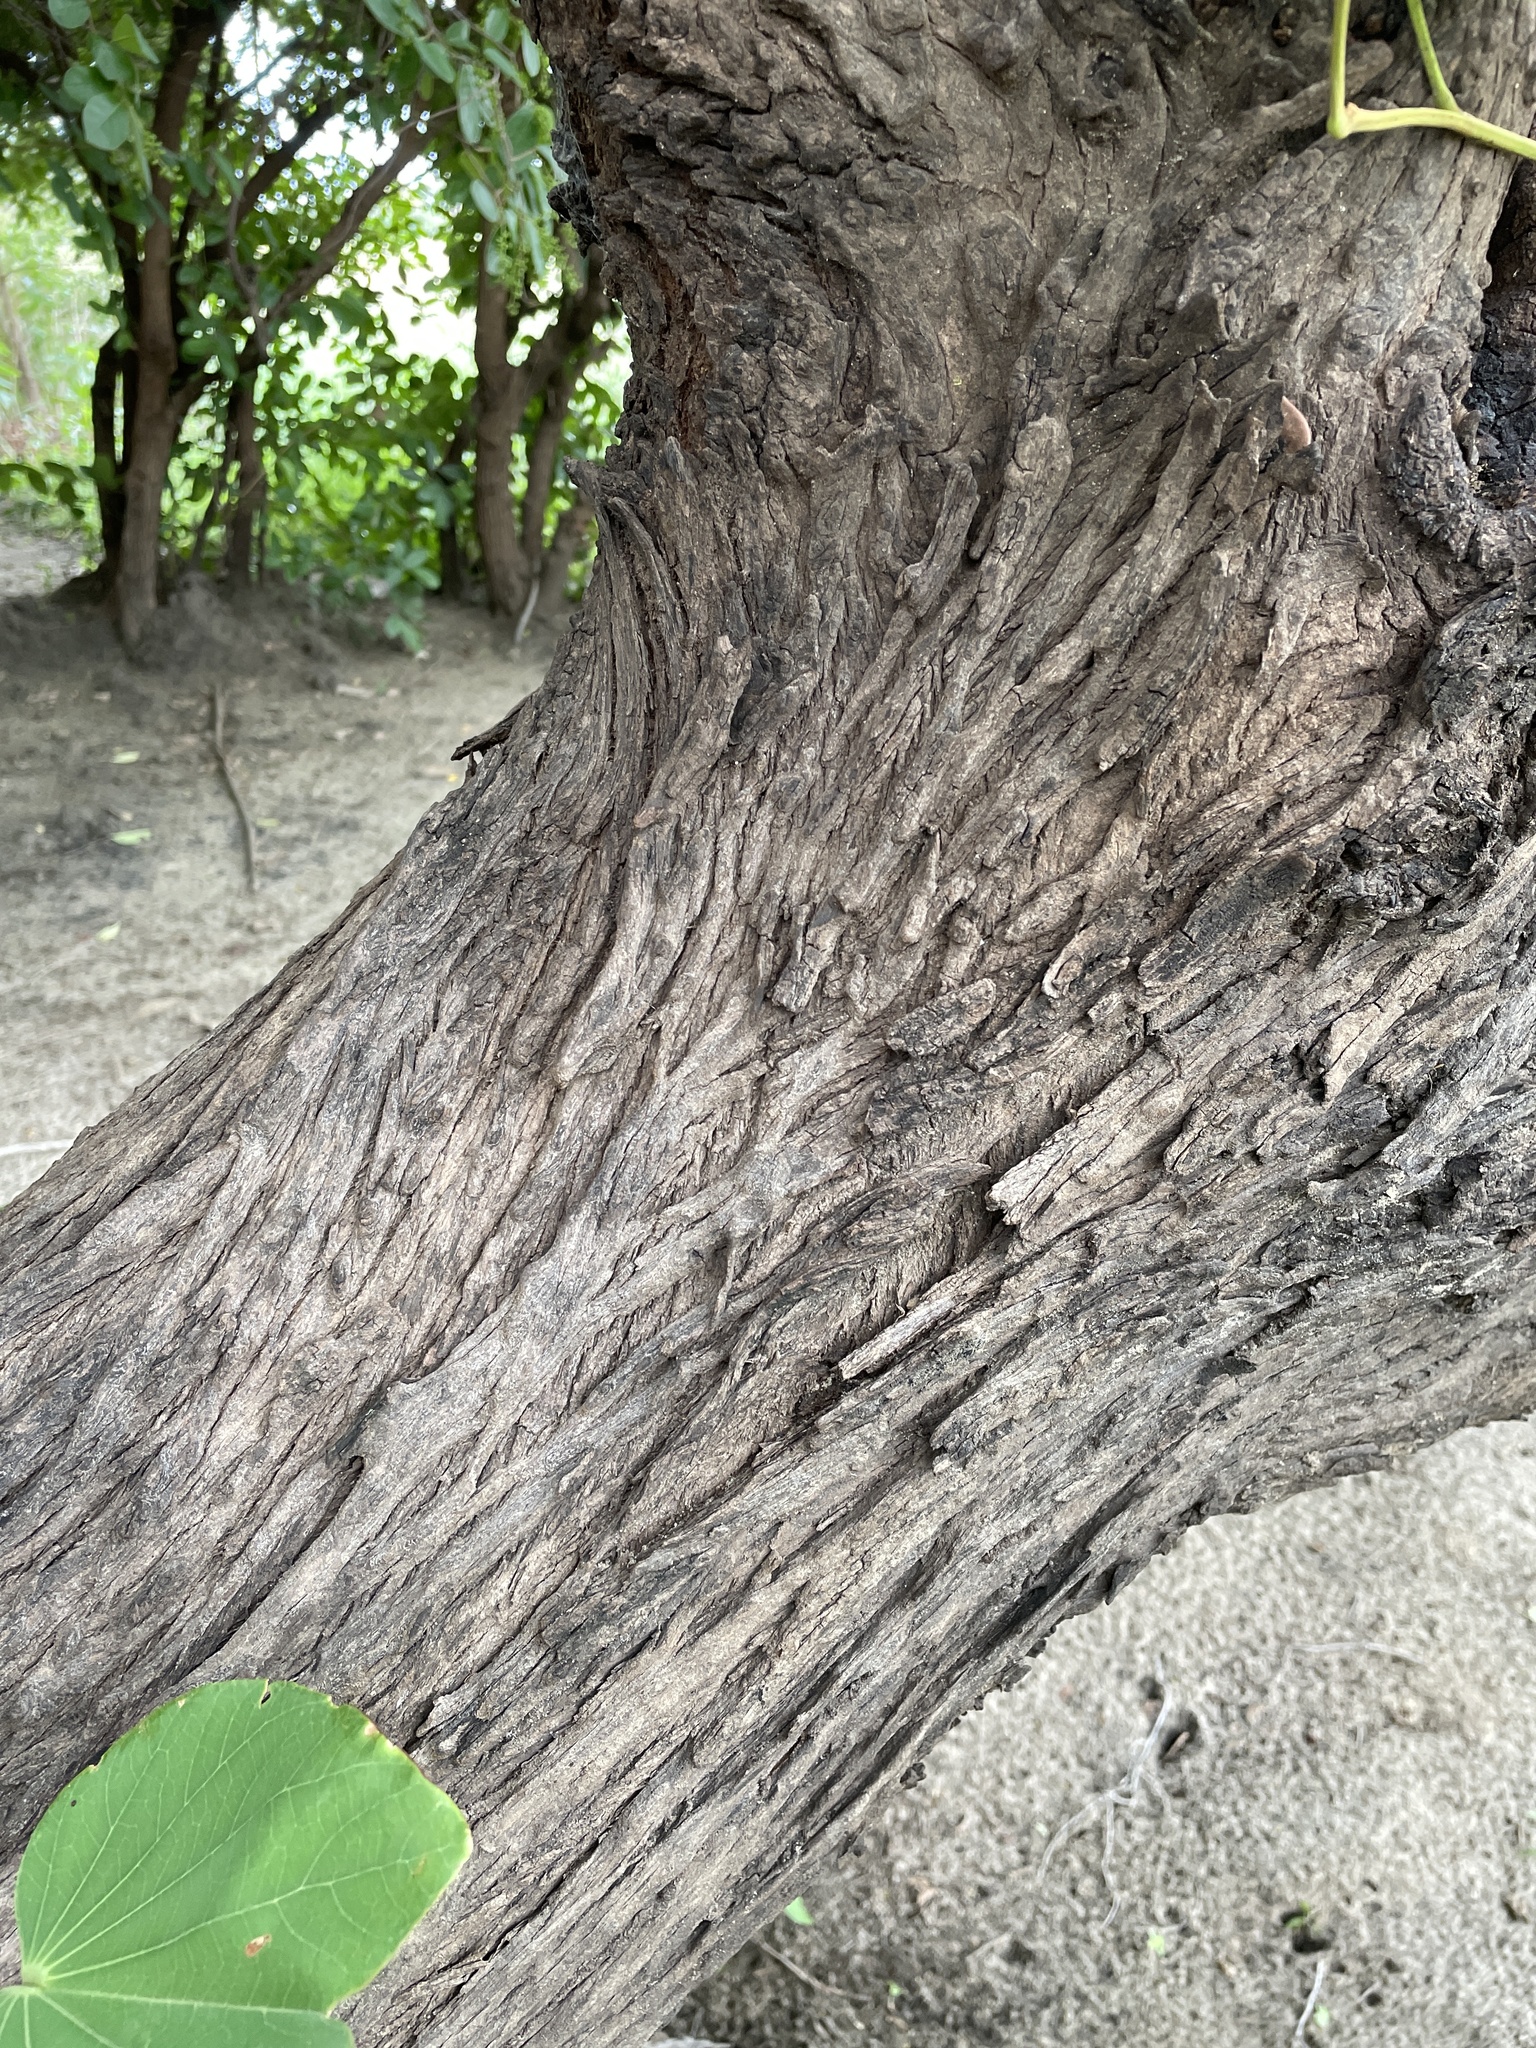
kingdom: Plantae
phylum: Tracheophyta
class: Magnoliopsida
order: Fabales
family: Fabaceae
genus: Piliostigma
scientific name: Piliostigma thonningii
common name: Kao
